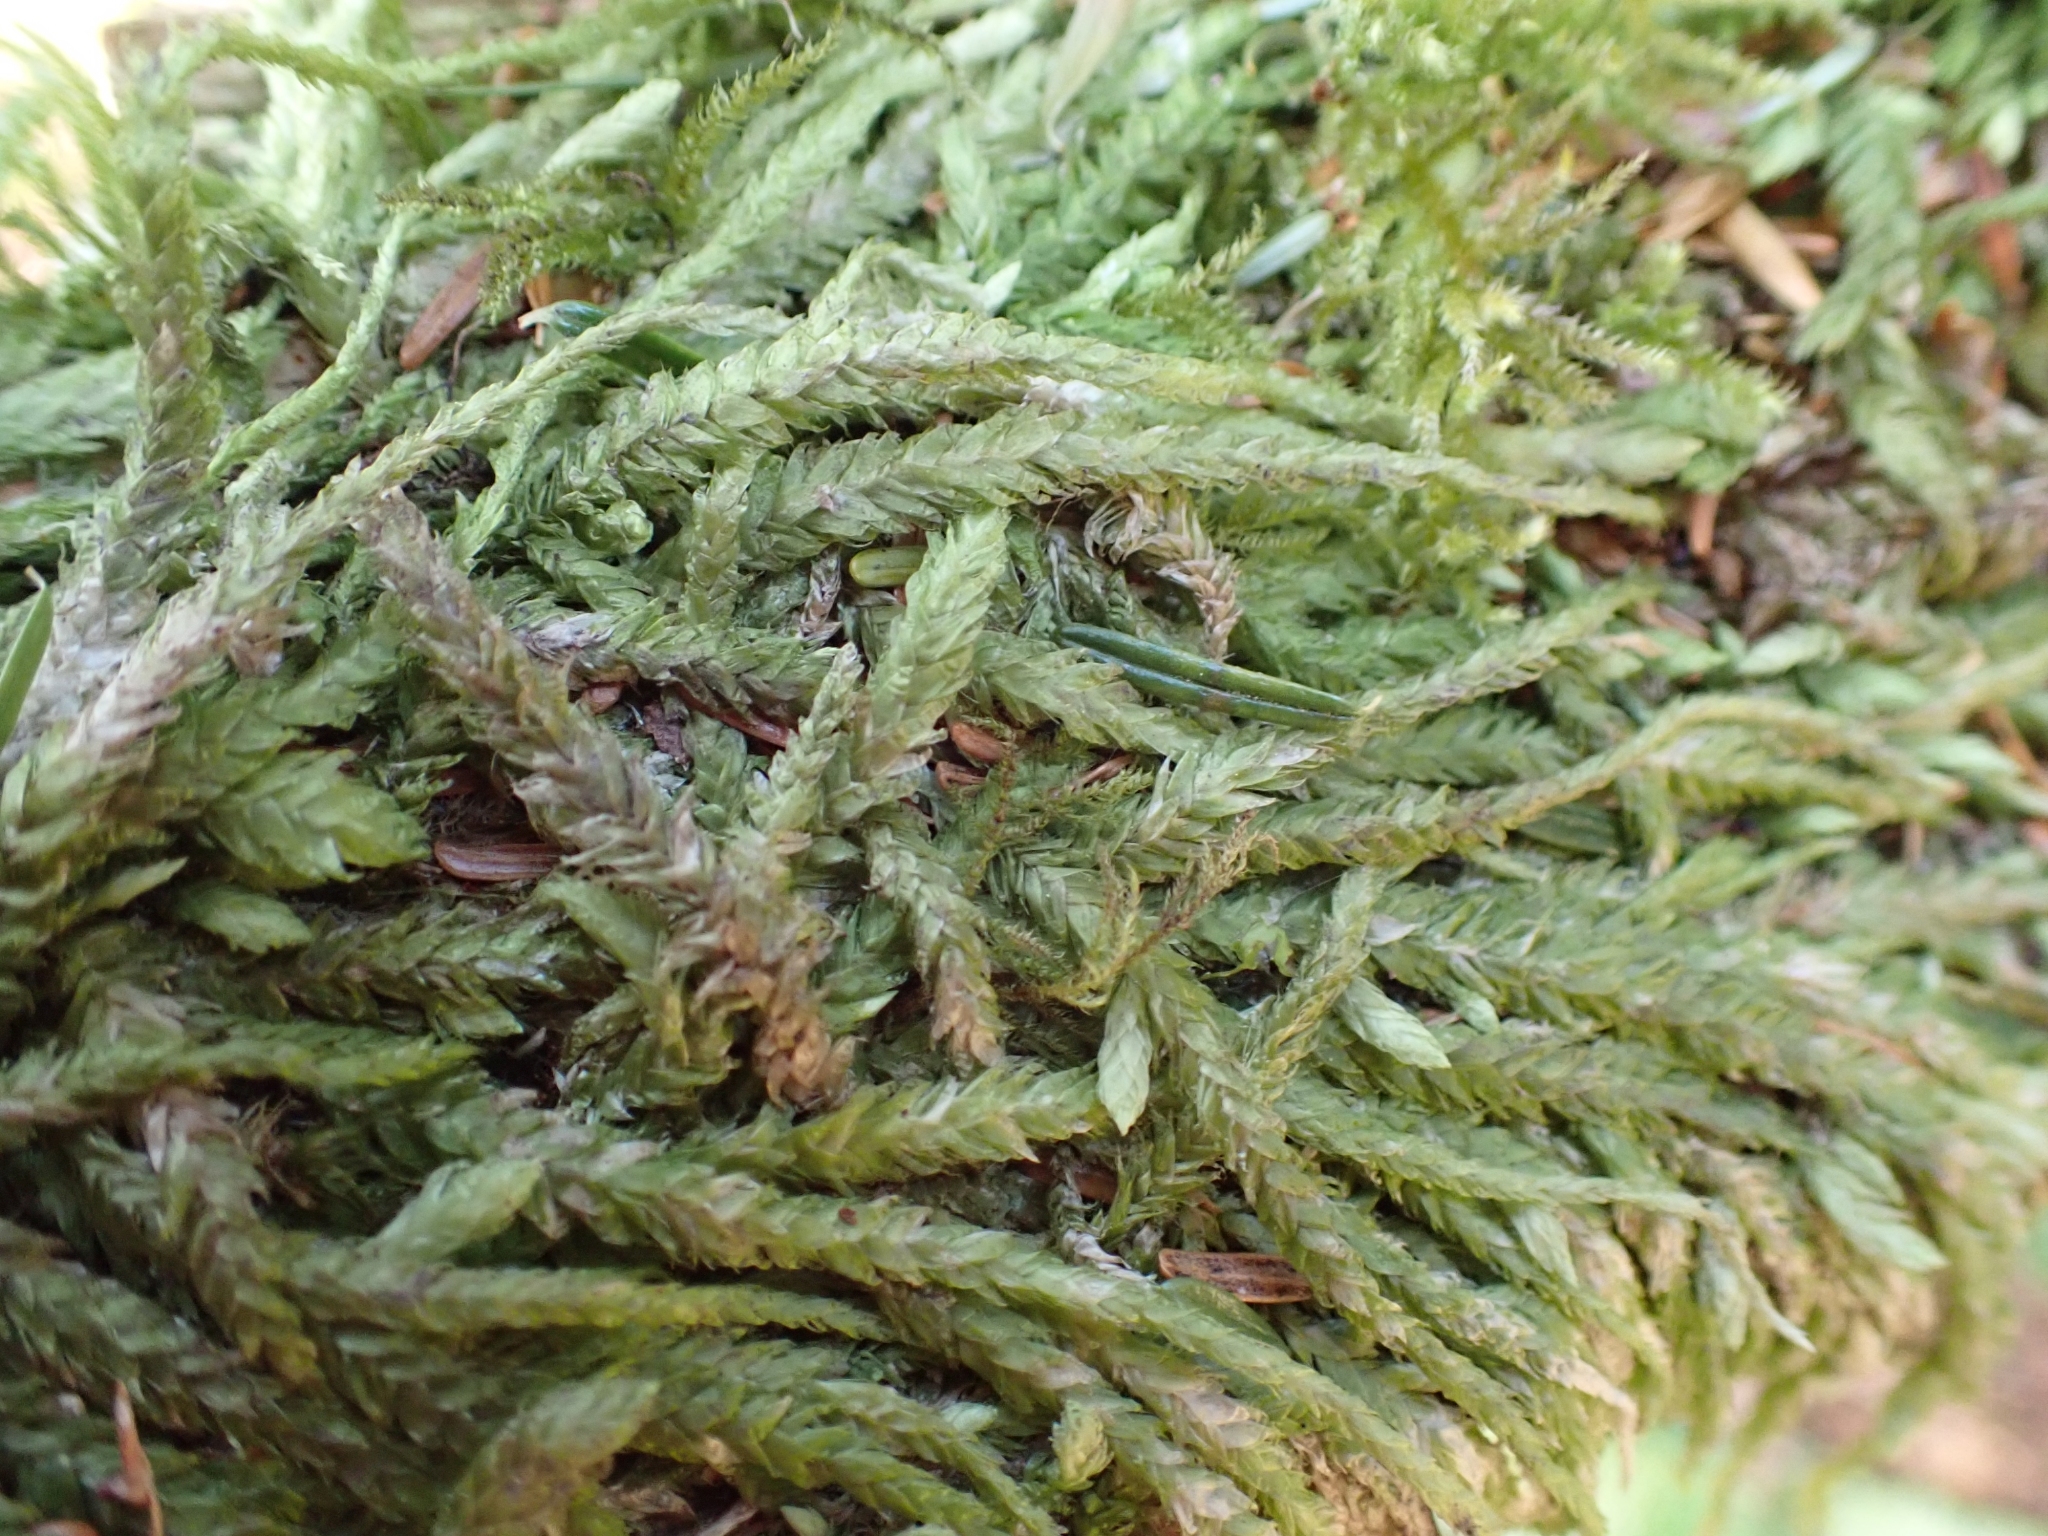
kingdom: Plantae
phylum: Bryophyta
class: Bryopsida
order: Hypnales
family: Plagiotheciaceae
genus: Plagiothecium
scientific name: Plagiothecium undulatum
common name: Waved silk-moss
